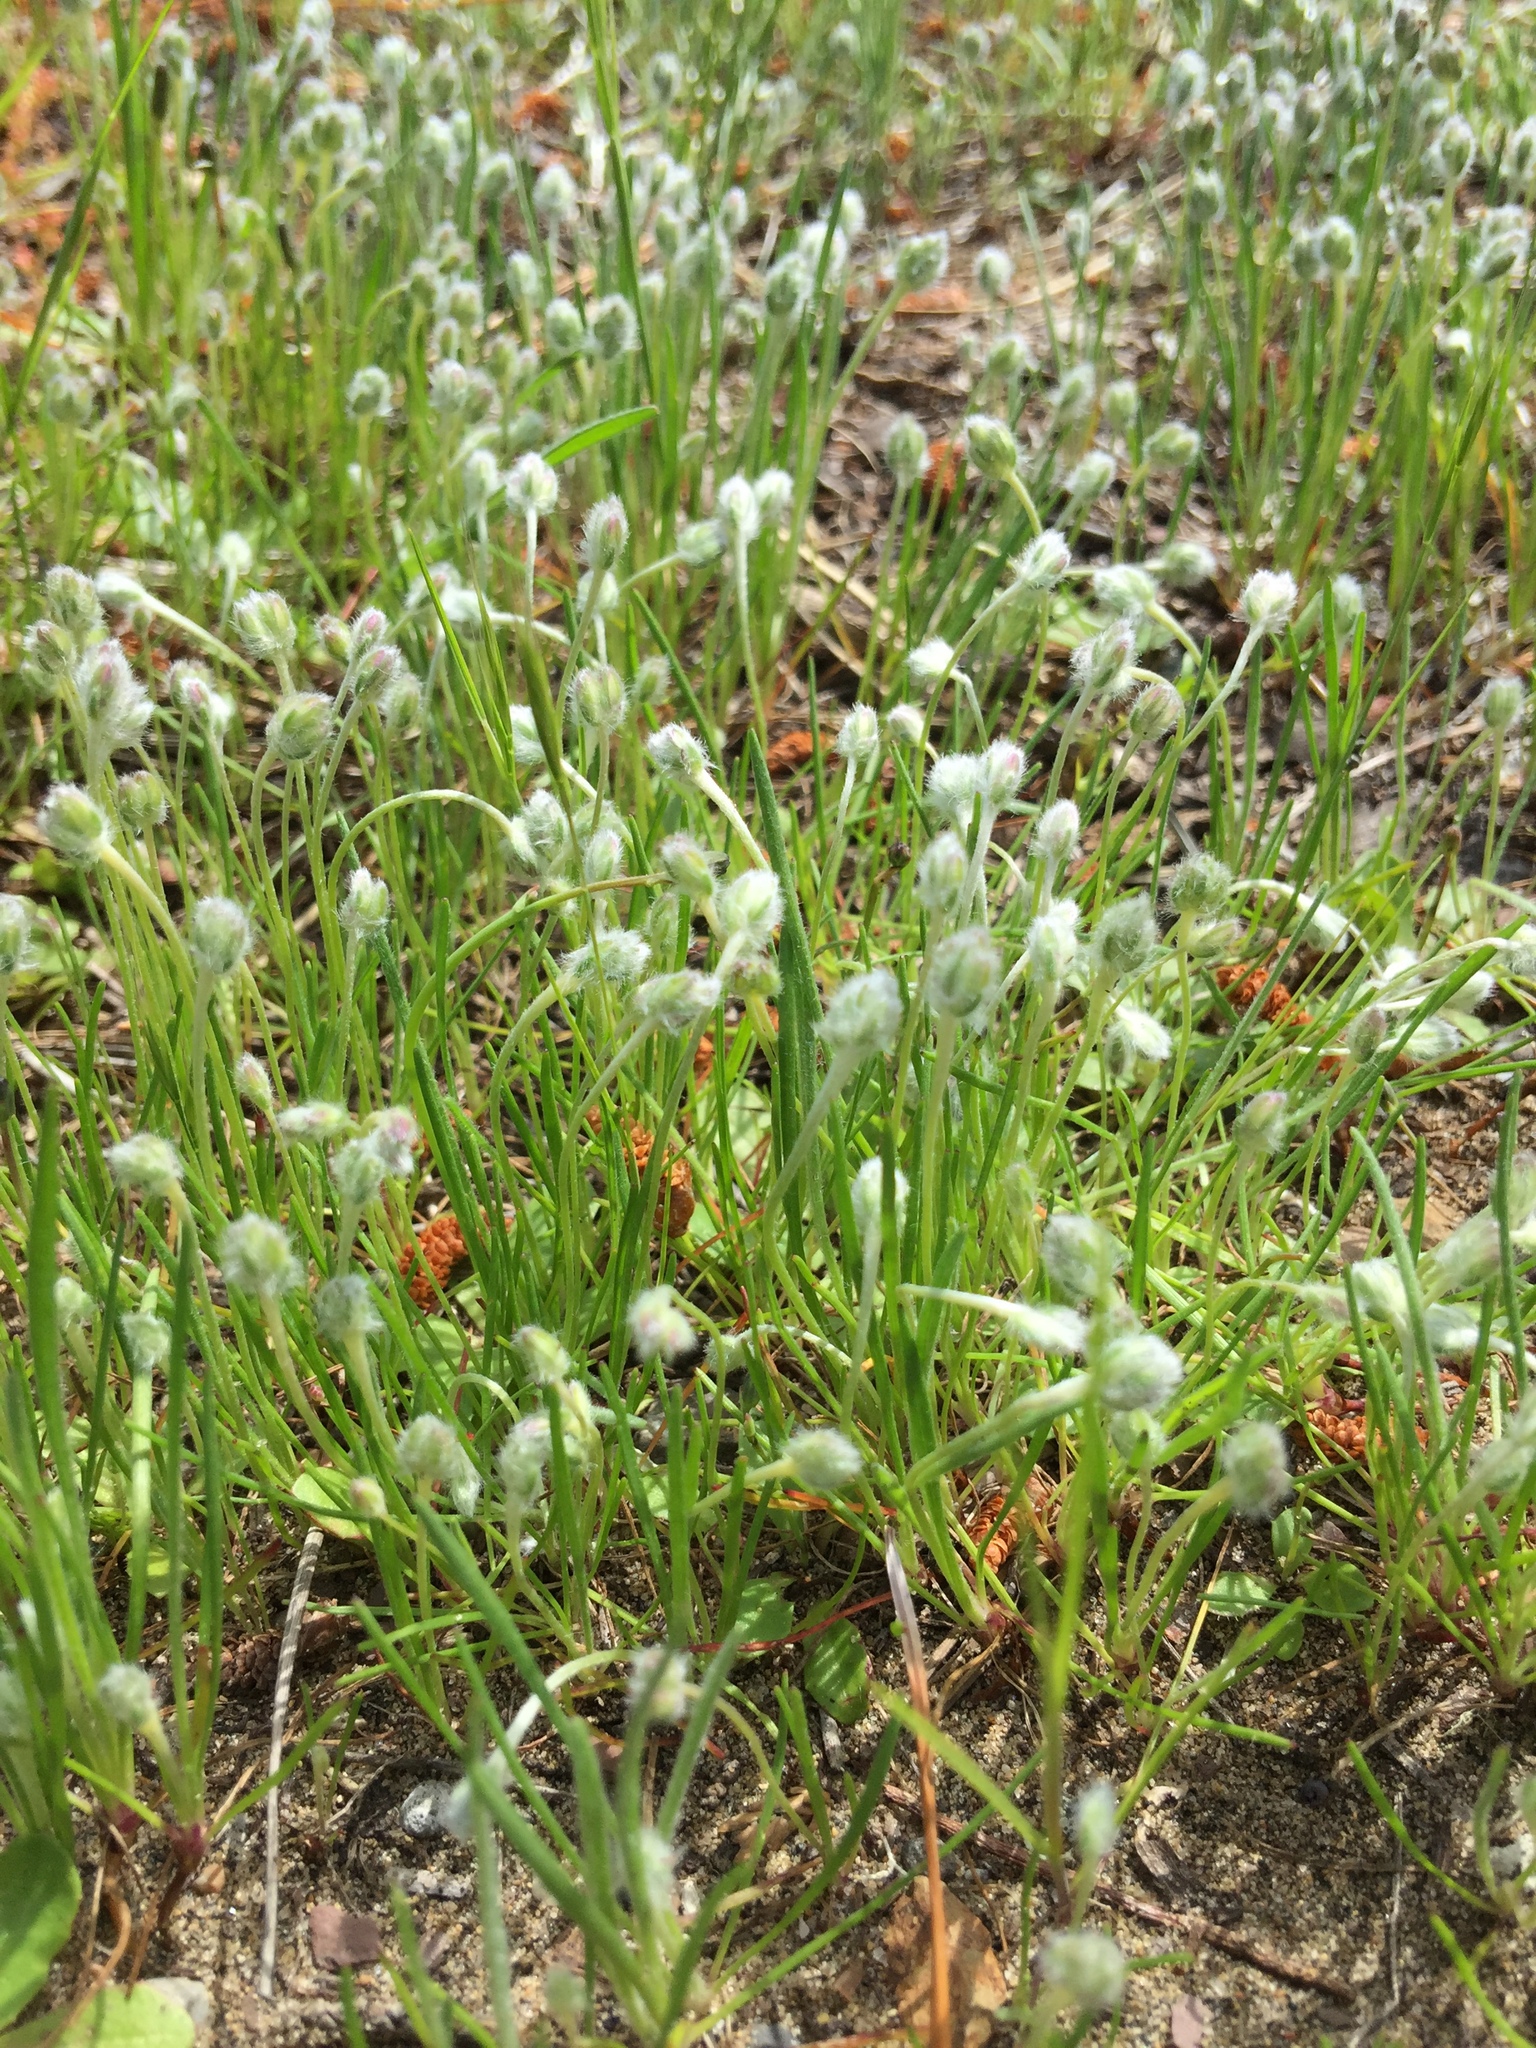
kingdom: Plantae
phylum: Tracheophyta
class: Magnoliopsida
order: Lamiales
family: Plantaginaceae
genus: Plantago
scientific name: Plantago erecta
